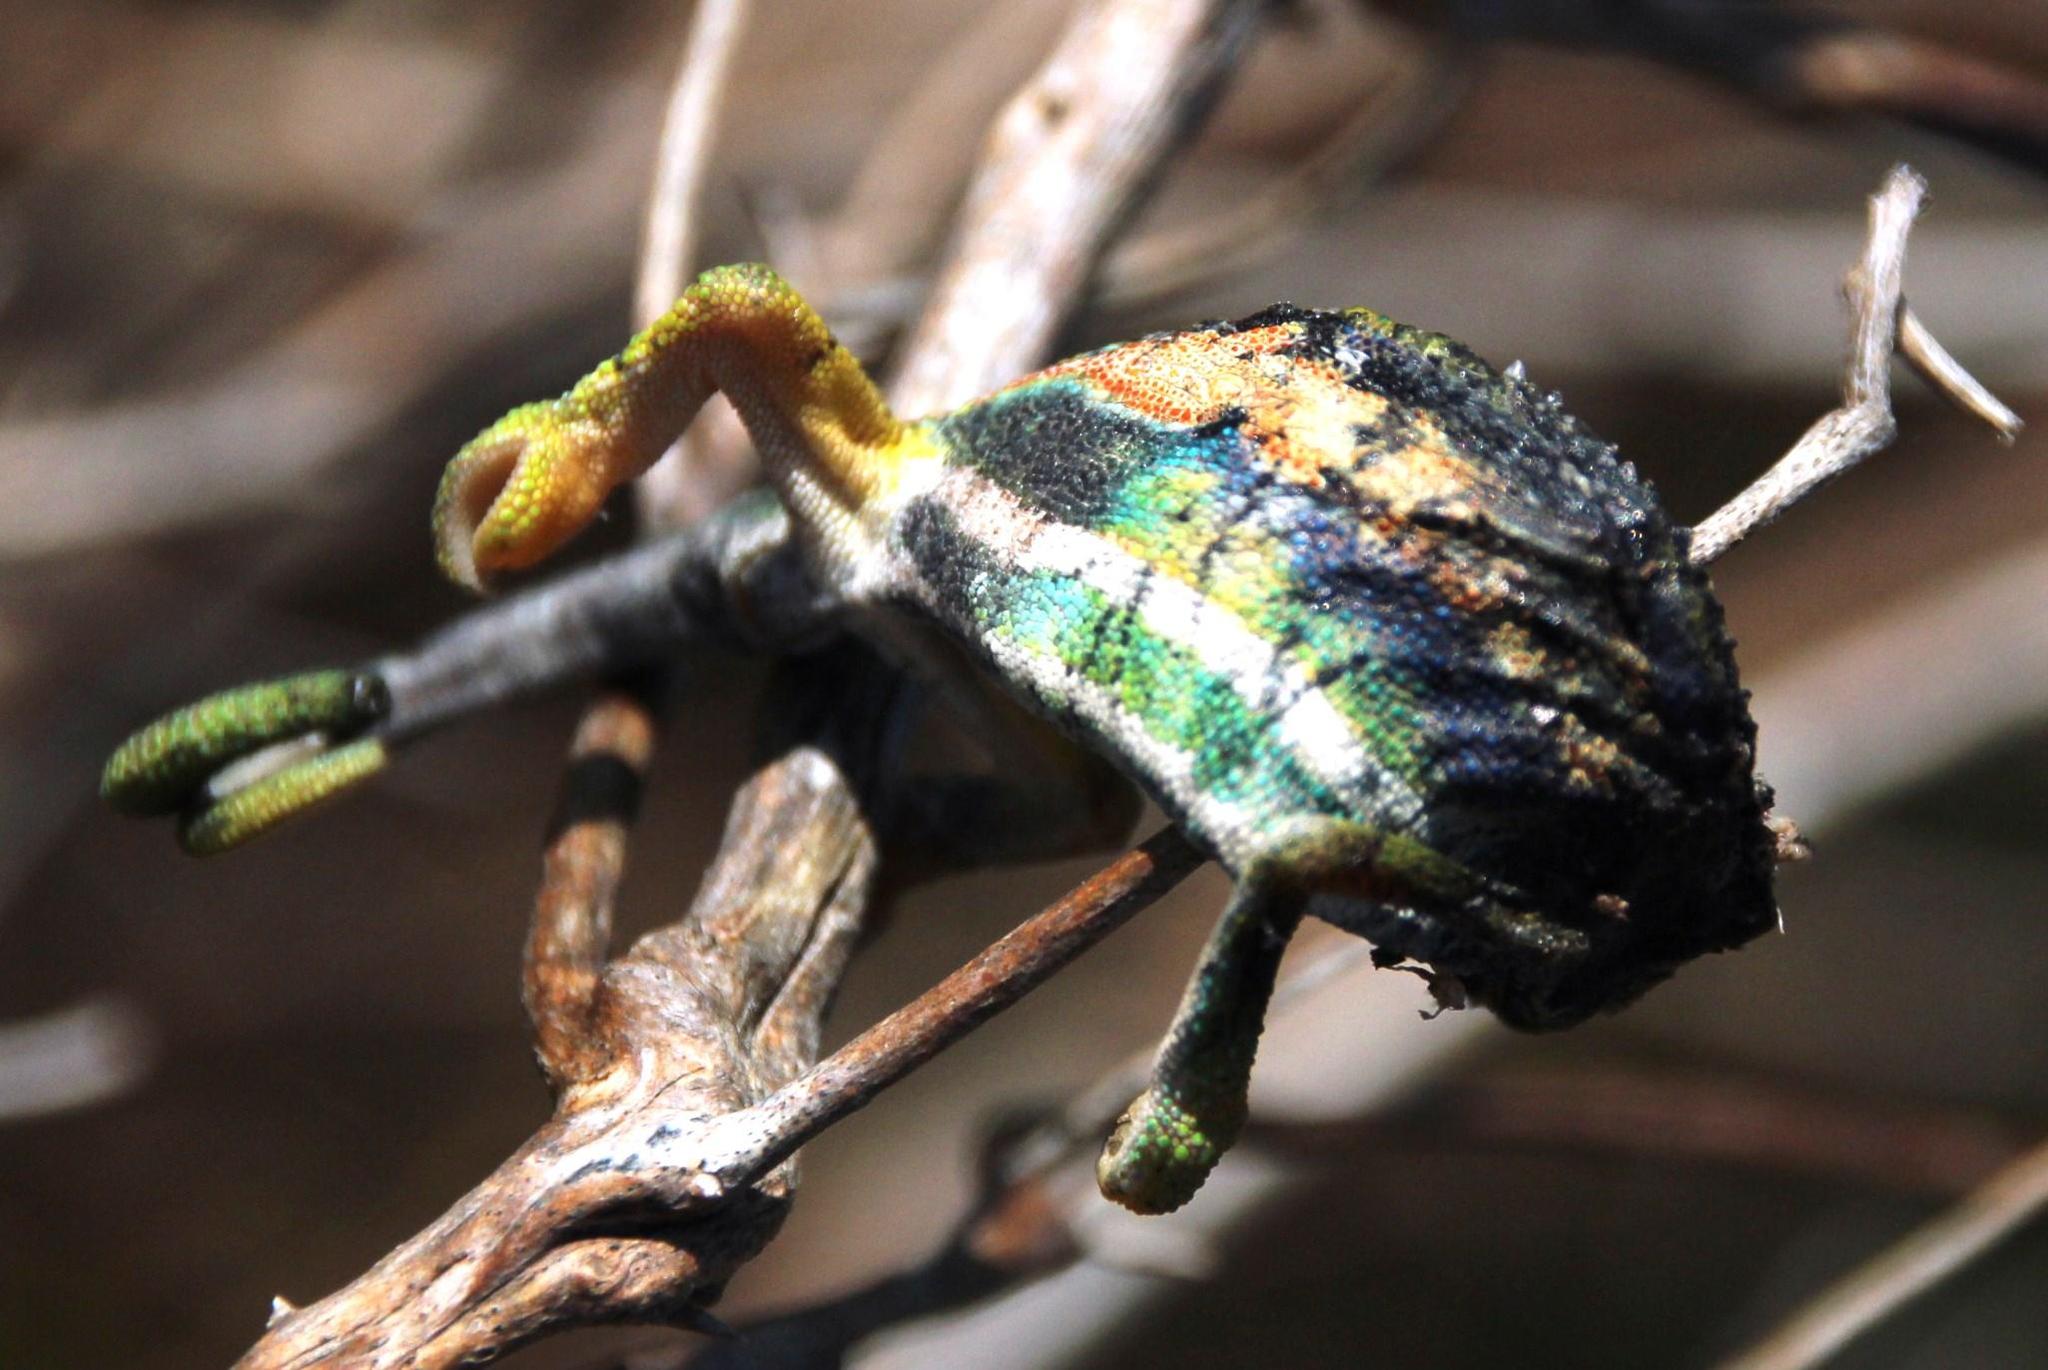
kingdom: Animalia
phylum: Chordata
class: Squamata
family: Chamaeleonidae
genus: Bradypodion
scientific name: Bradypodion pumilum
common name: Cape dwarf chameleon
